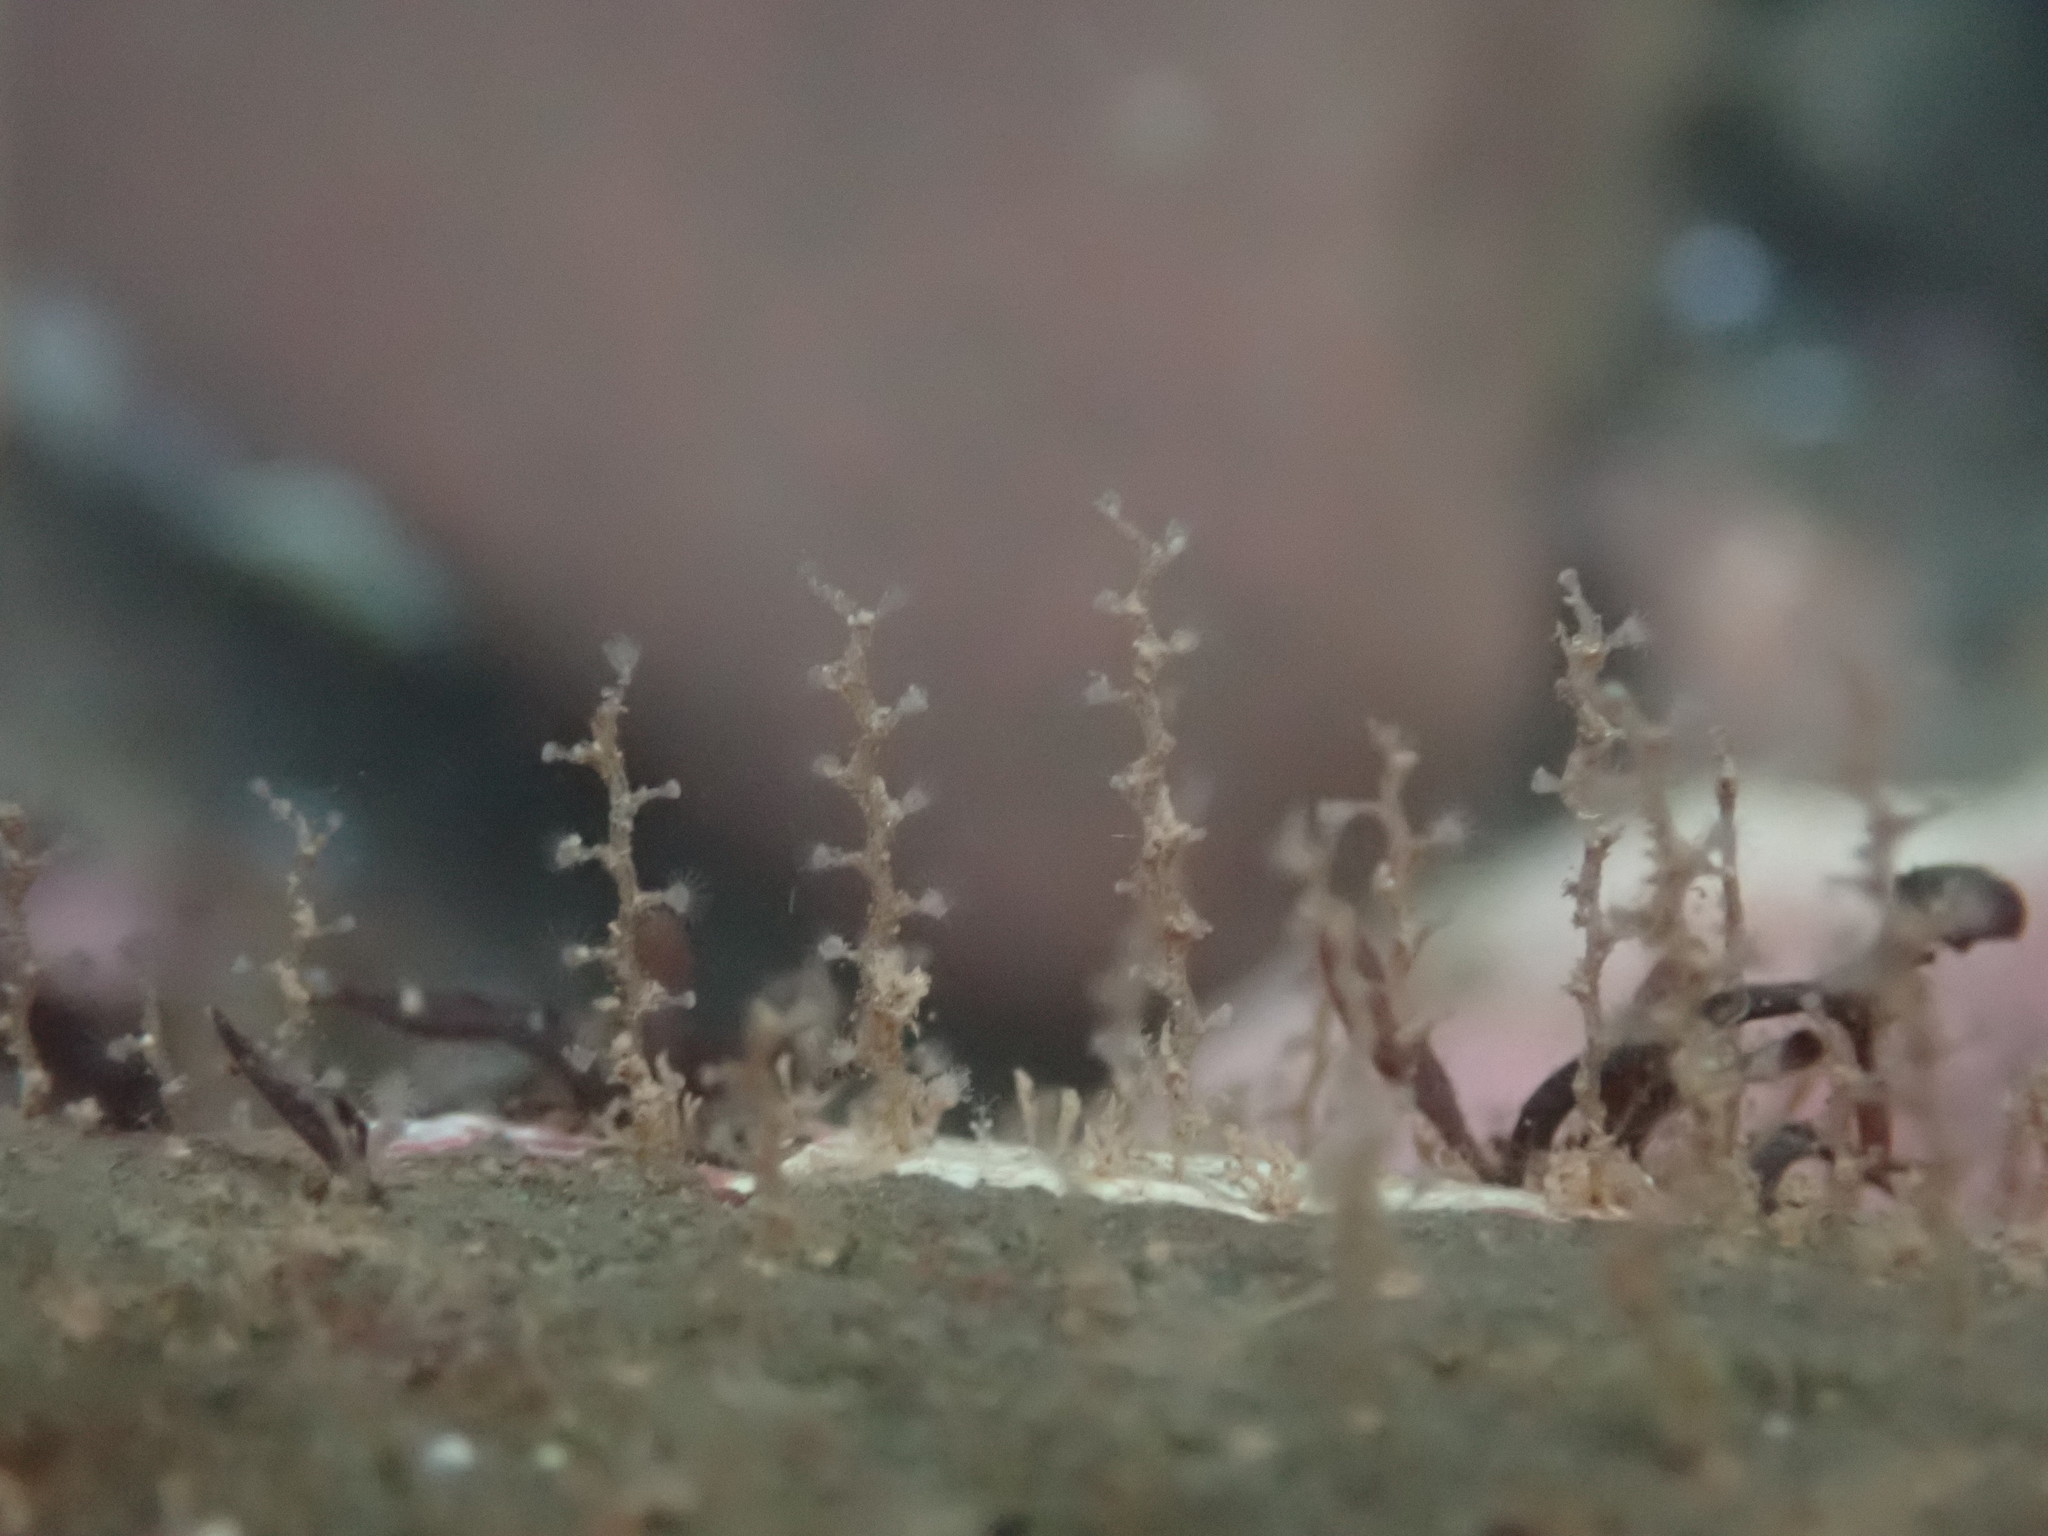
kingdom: Animalia
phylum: Cnidaria
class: Hydrozoa
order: Leptothecata
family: Campanulariidae
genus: Obelia
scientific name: Obelia geniculata
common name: Bell hydroid
